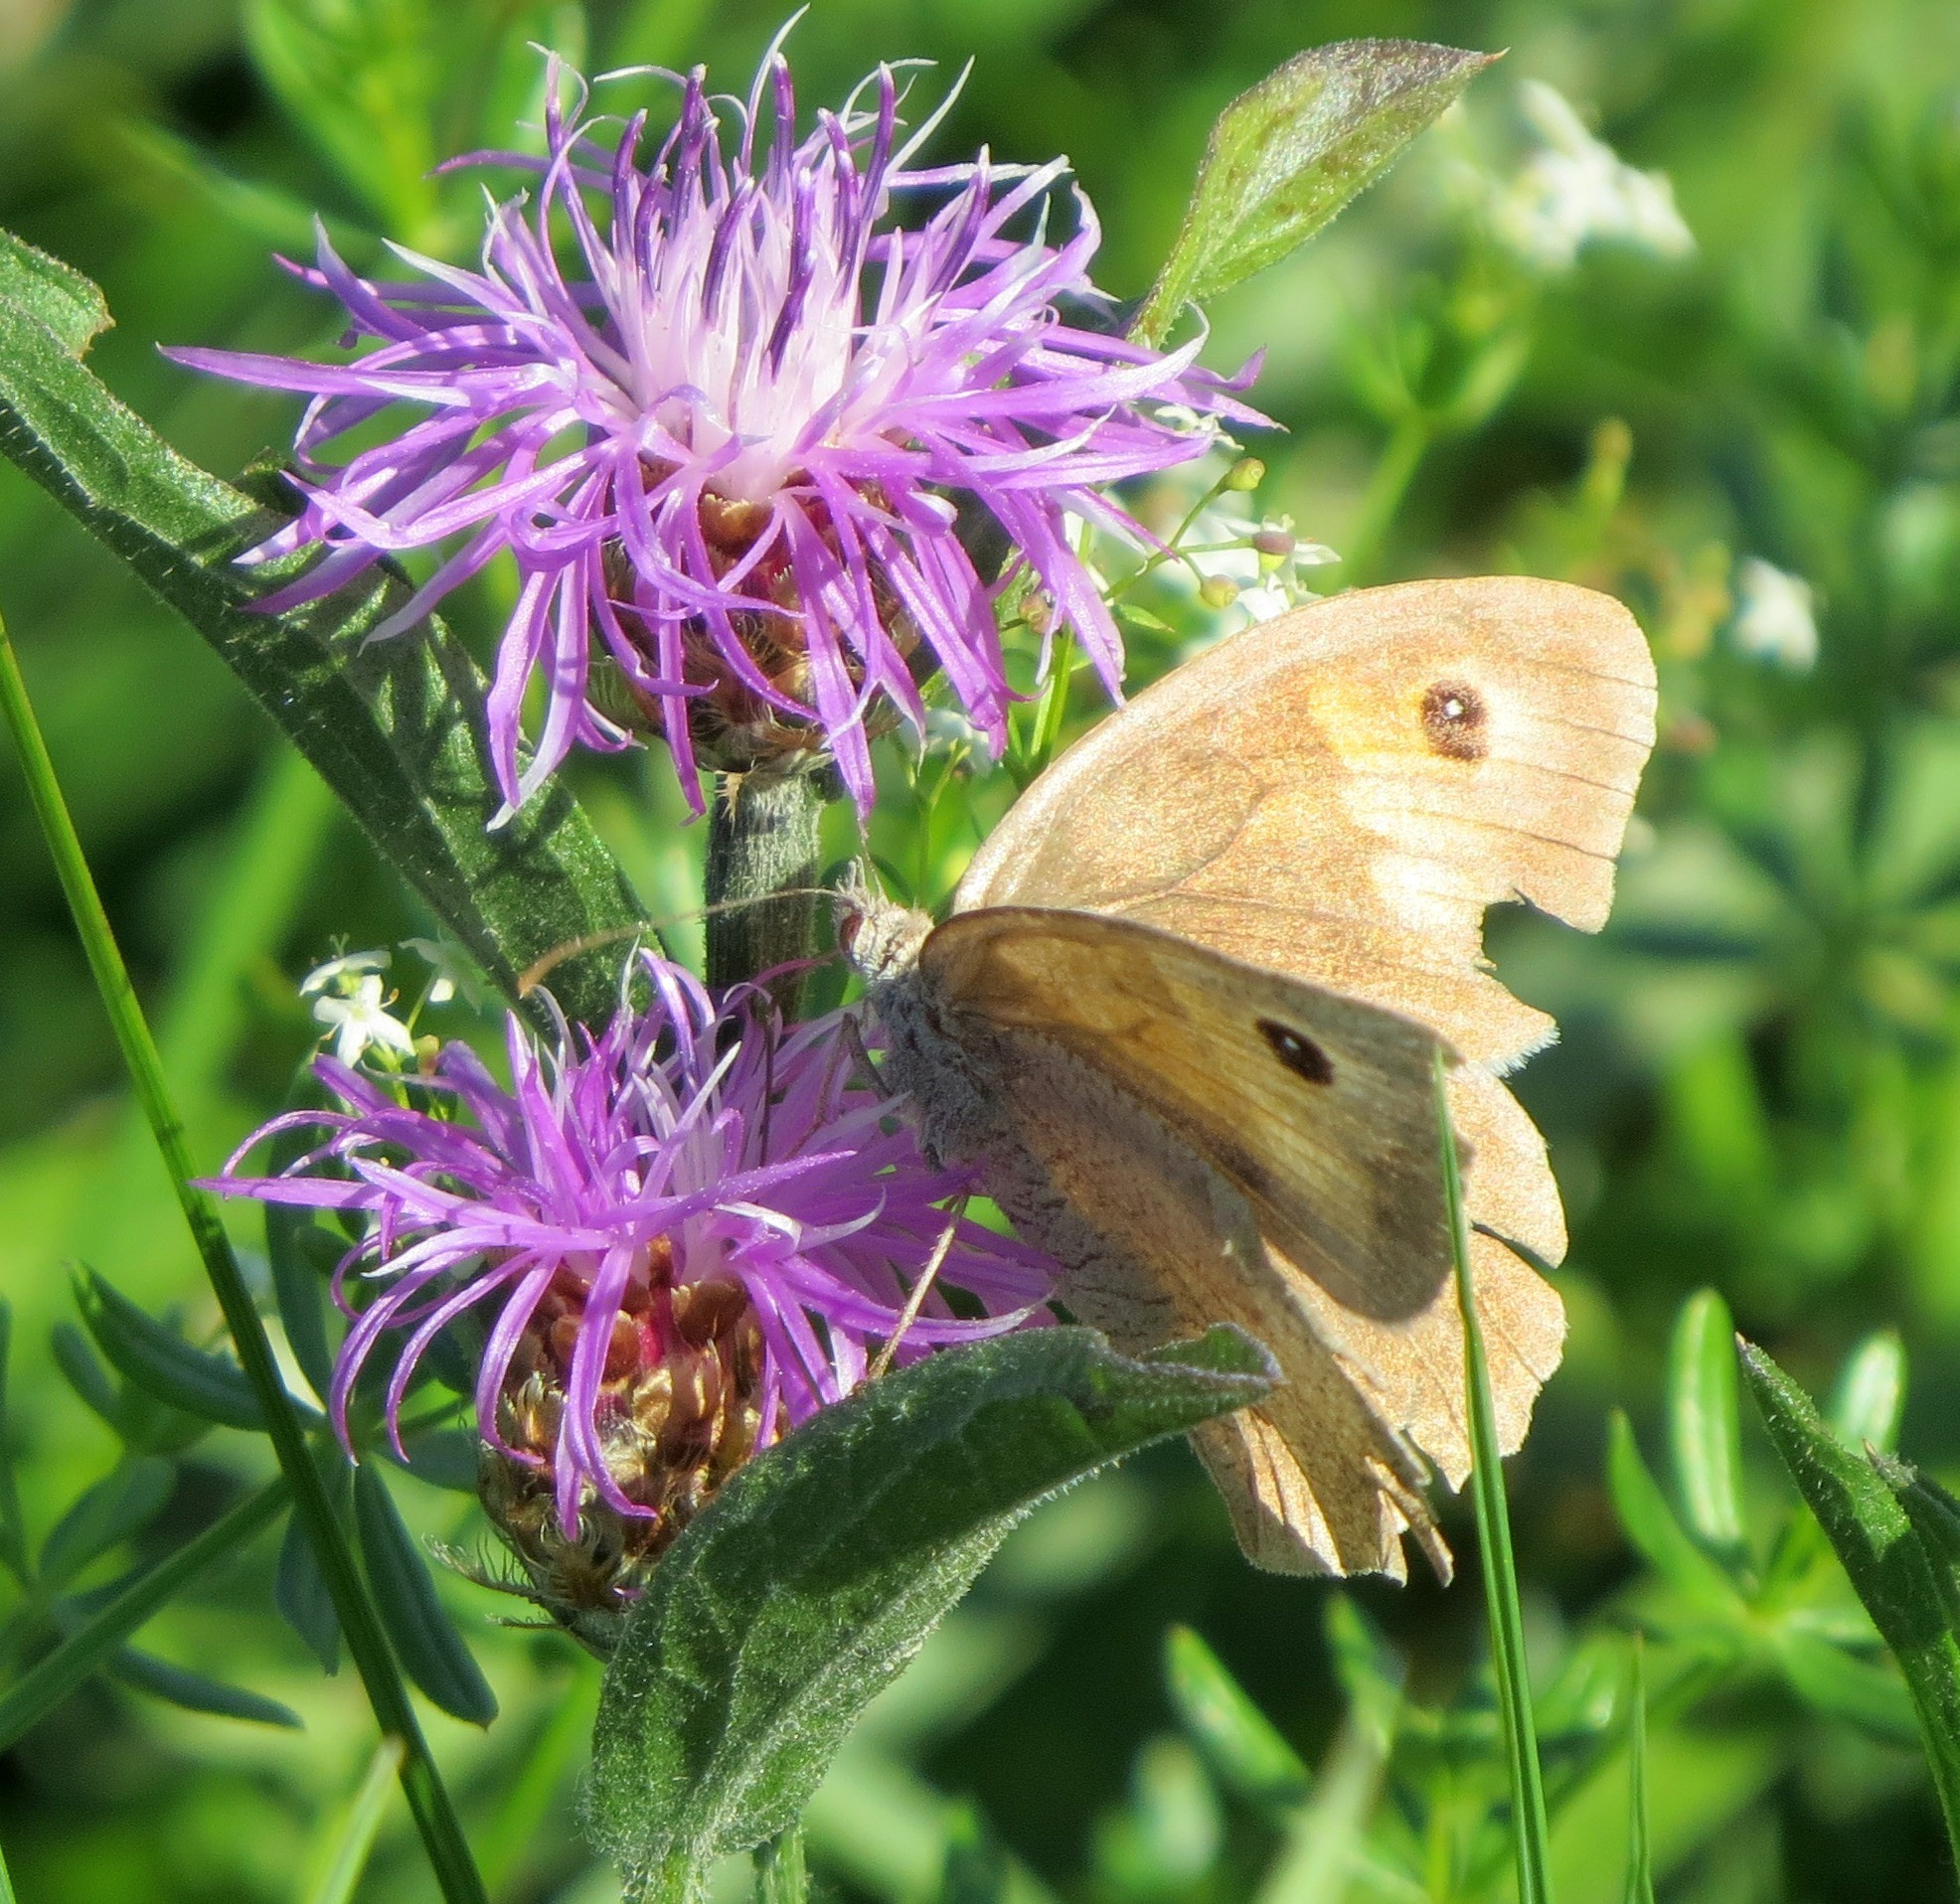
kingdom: Animalia
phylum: Arthropoda
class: Insecta
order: Lepidoptera
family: Nymphalidae
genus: Maniola
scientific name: Maniola jurtina
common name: Meadow brown
